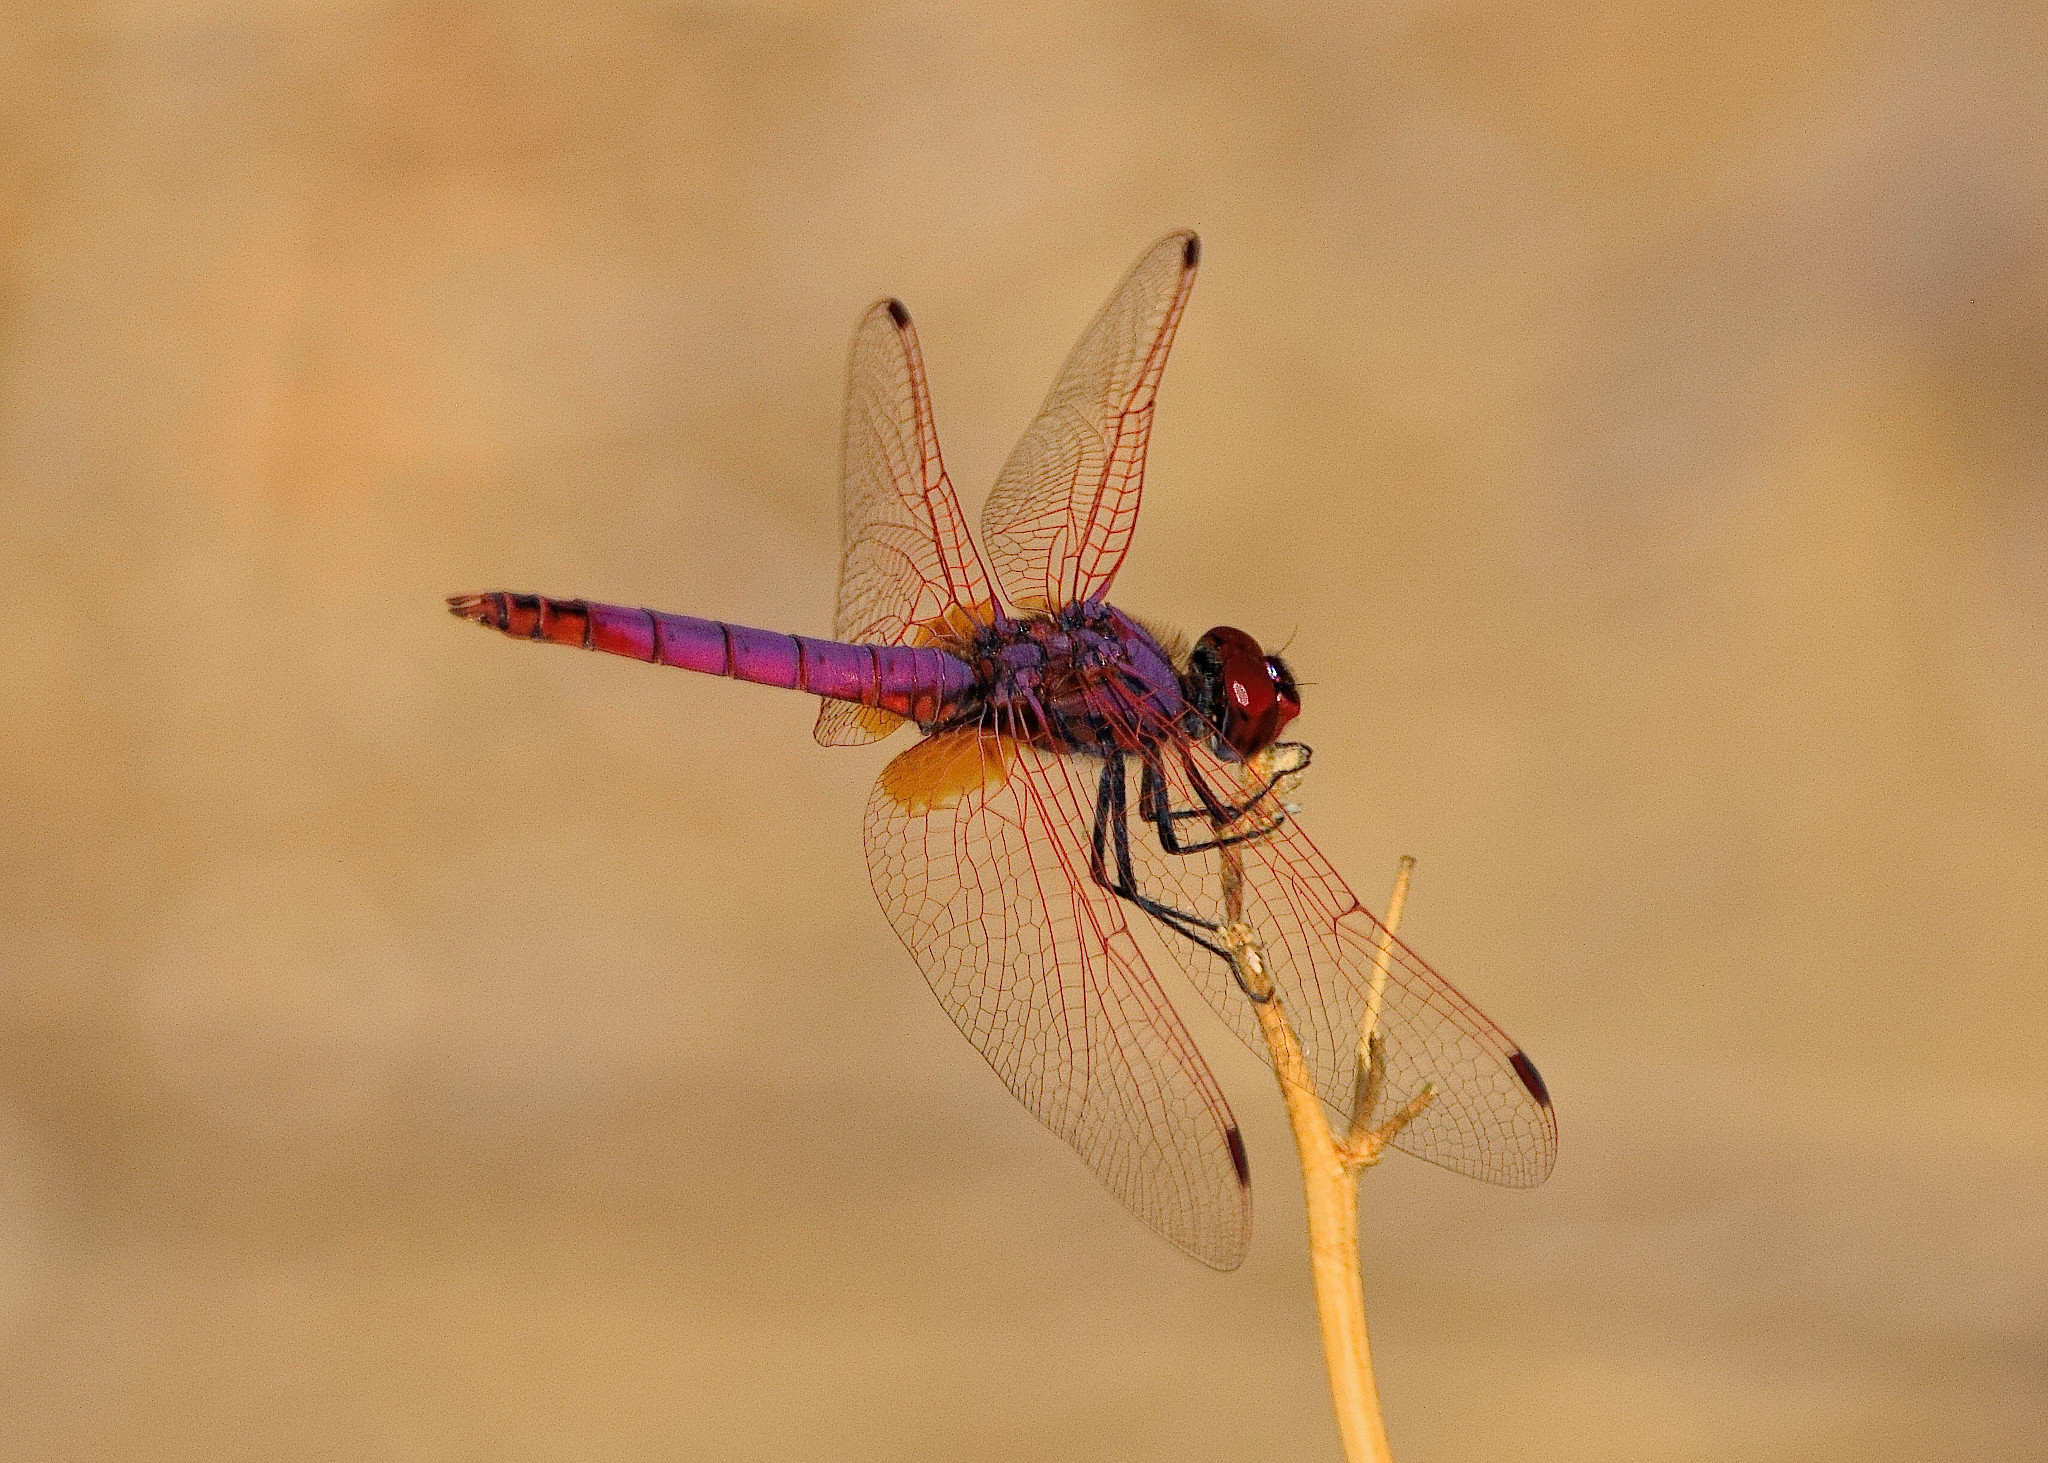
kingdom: Animalia
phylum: Arthropoda
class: Insecta
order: Odonata
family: Libellulidae
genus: Trithemis
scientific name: Trithemis annulata
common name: Violet dropwing
